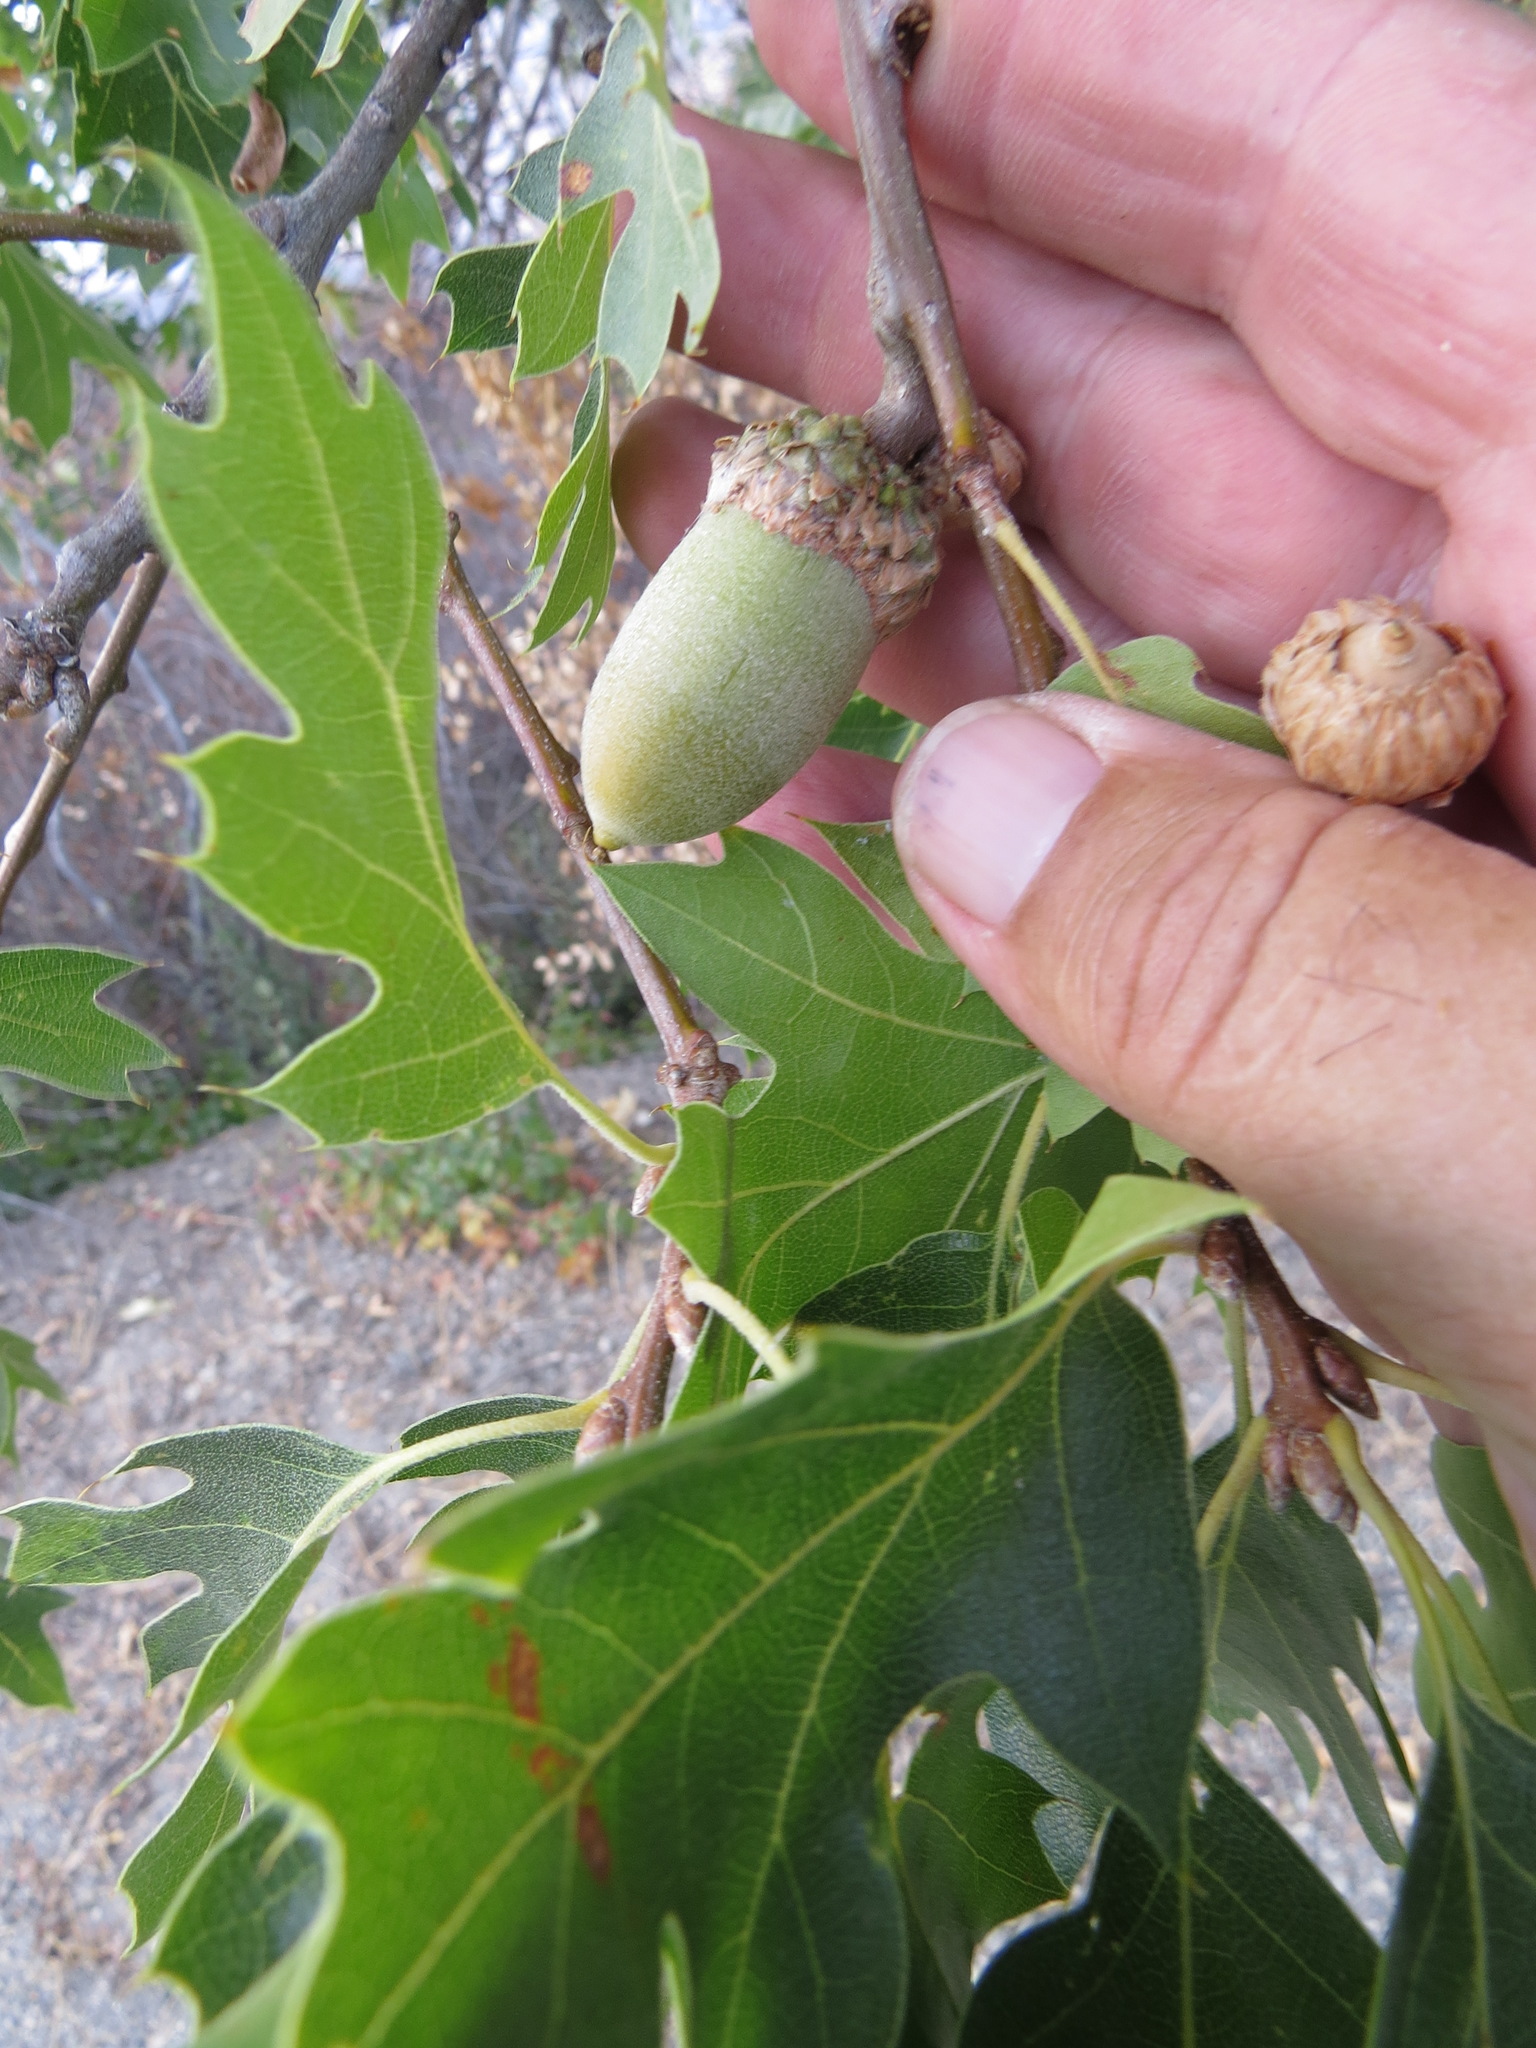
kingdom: Plantae
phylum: Tracheophyta
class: Magnoliopsida
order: Fagales
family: Fagaceae
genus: Quercus
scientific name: Quercus kelloggii
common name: California black oak
